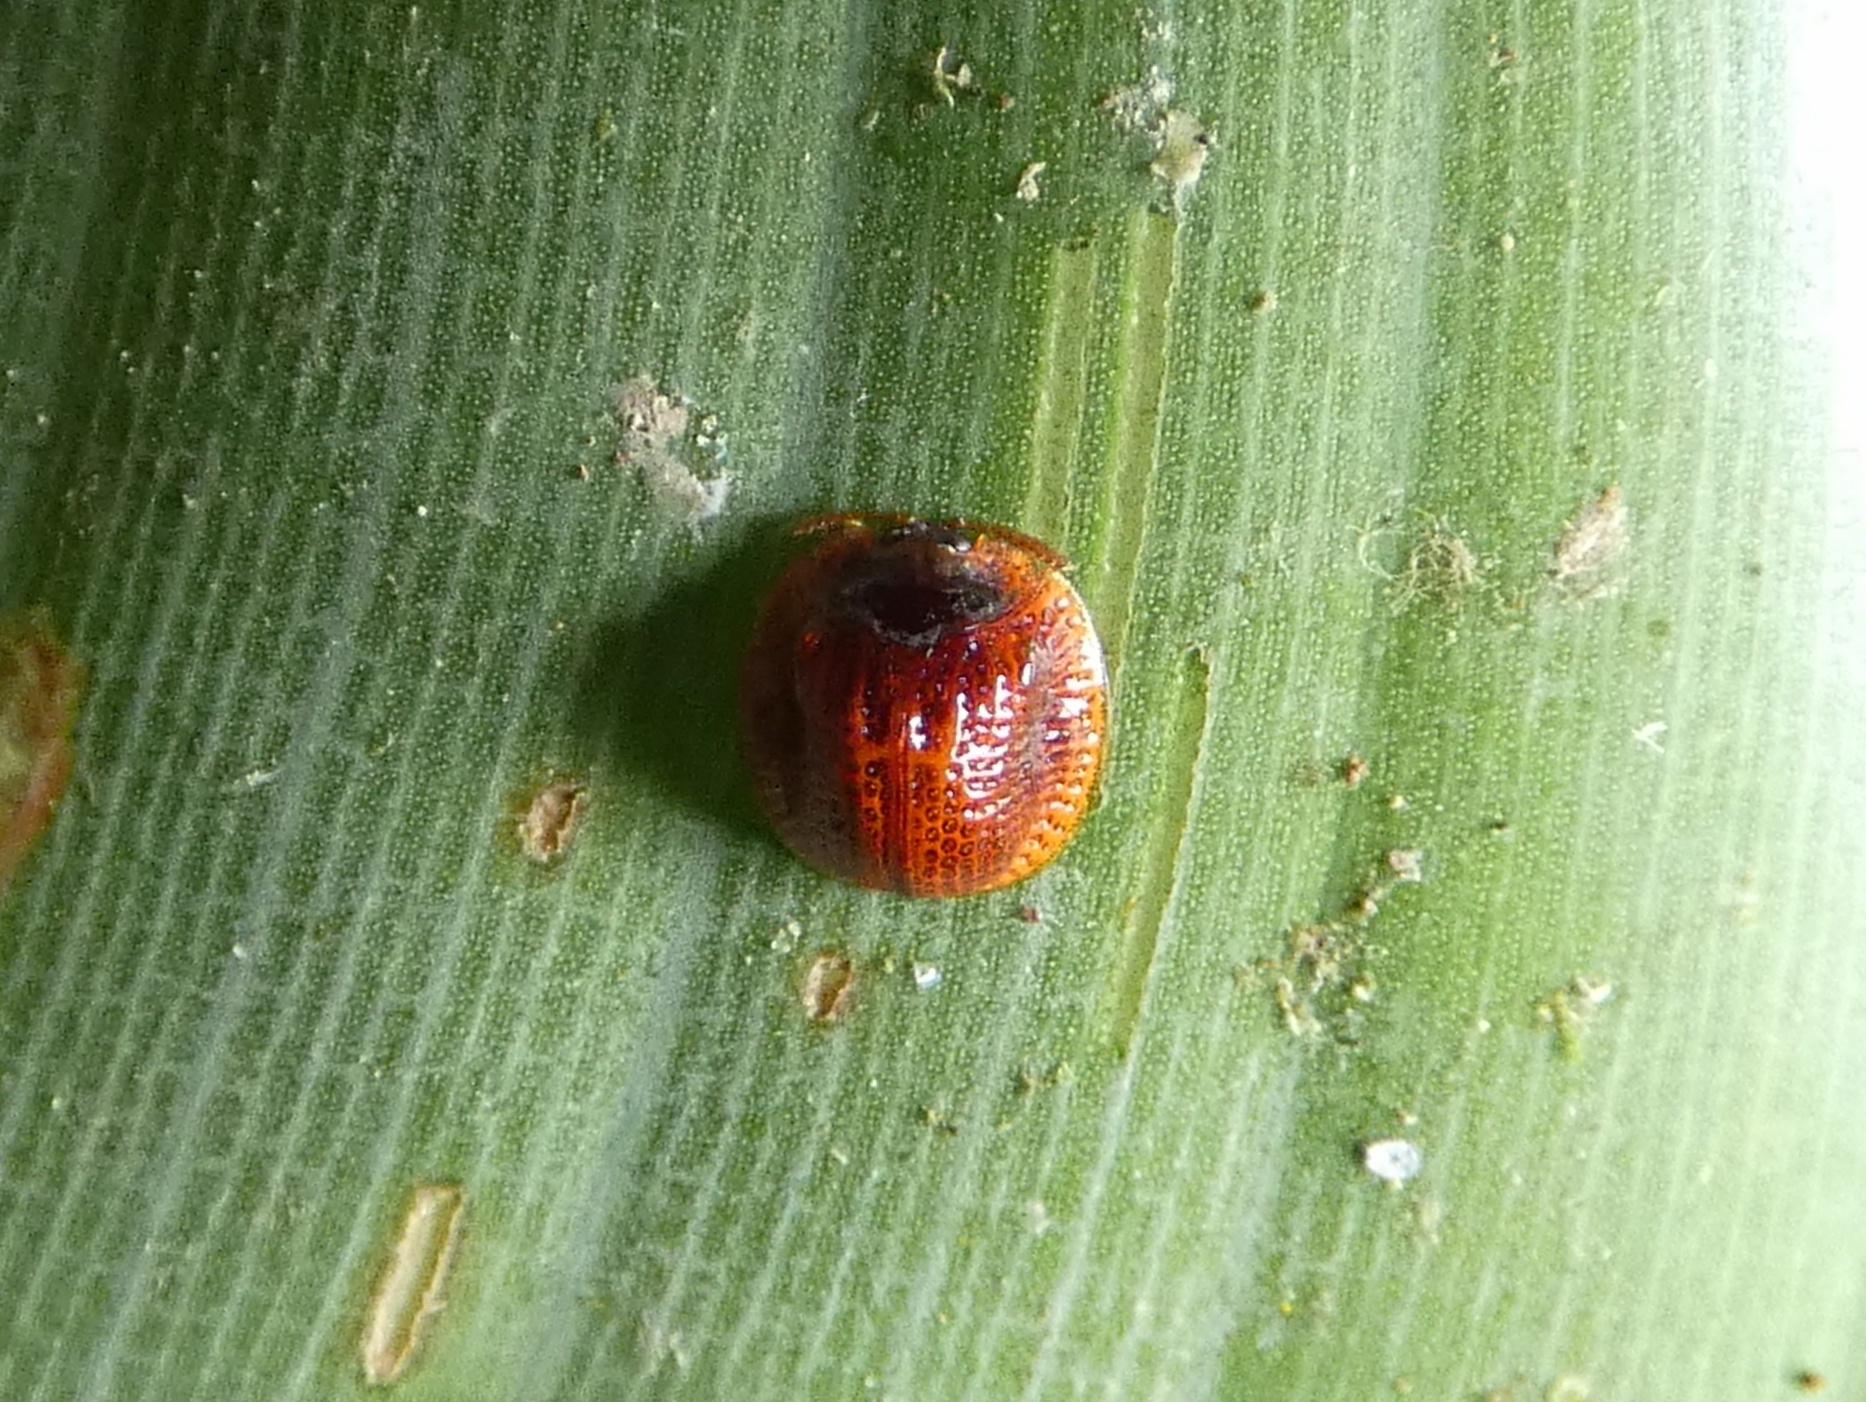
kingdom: Animalia
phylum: Arthropoda
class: Insecta
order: Coleoptera
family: Chrysomelidae
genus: Spaethiella
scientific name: Spaethiella miniata
